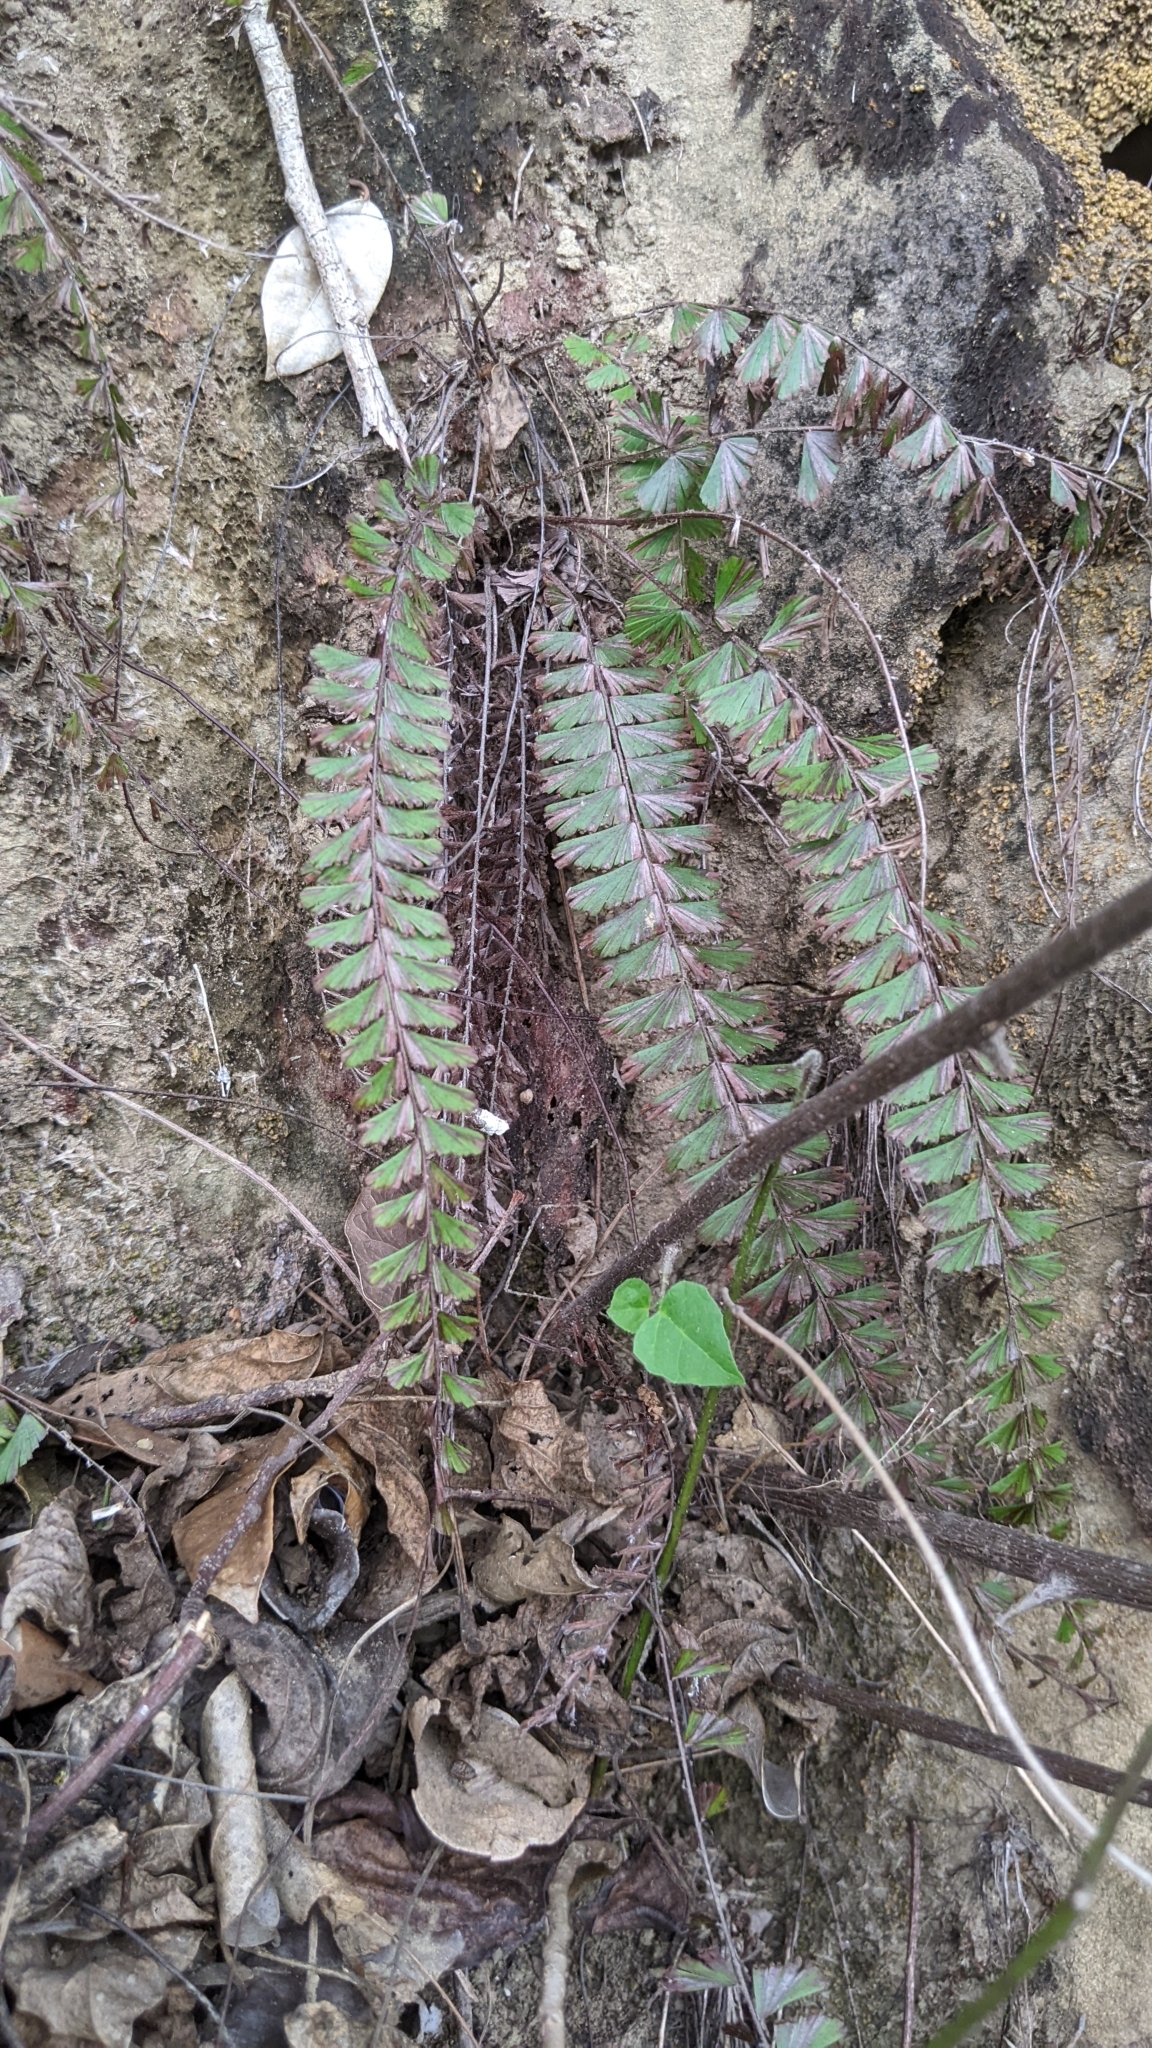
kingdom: Plantae
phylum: Tracheophyta
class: Polypodiopsida
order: Polypodiales
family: Pteridaceae
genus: Adiantum
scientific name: Adiantum caudatum
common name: Tailed maidenhair
